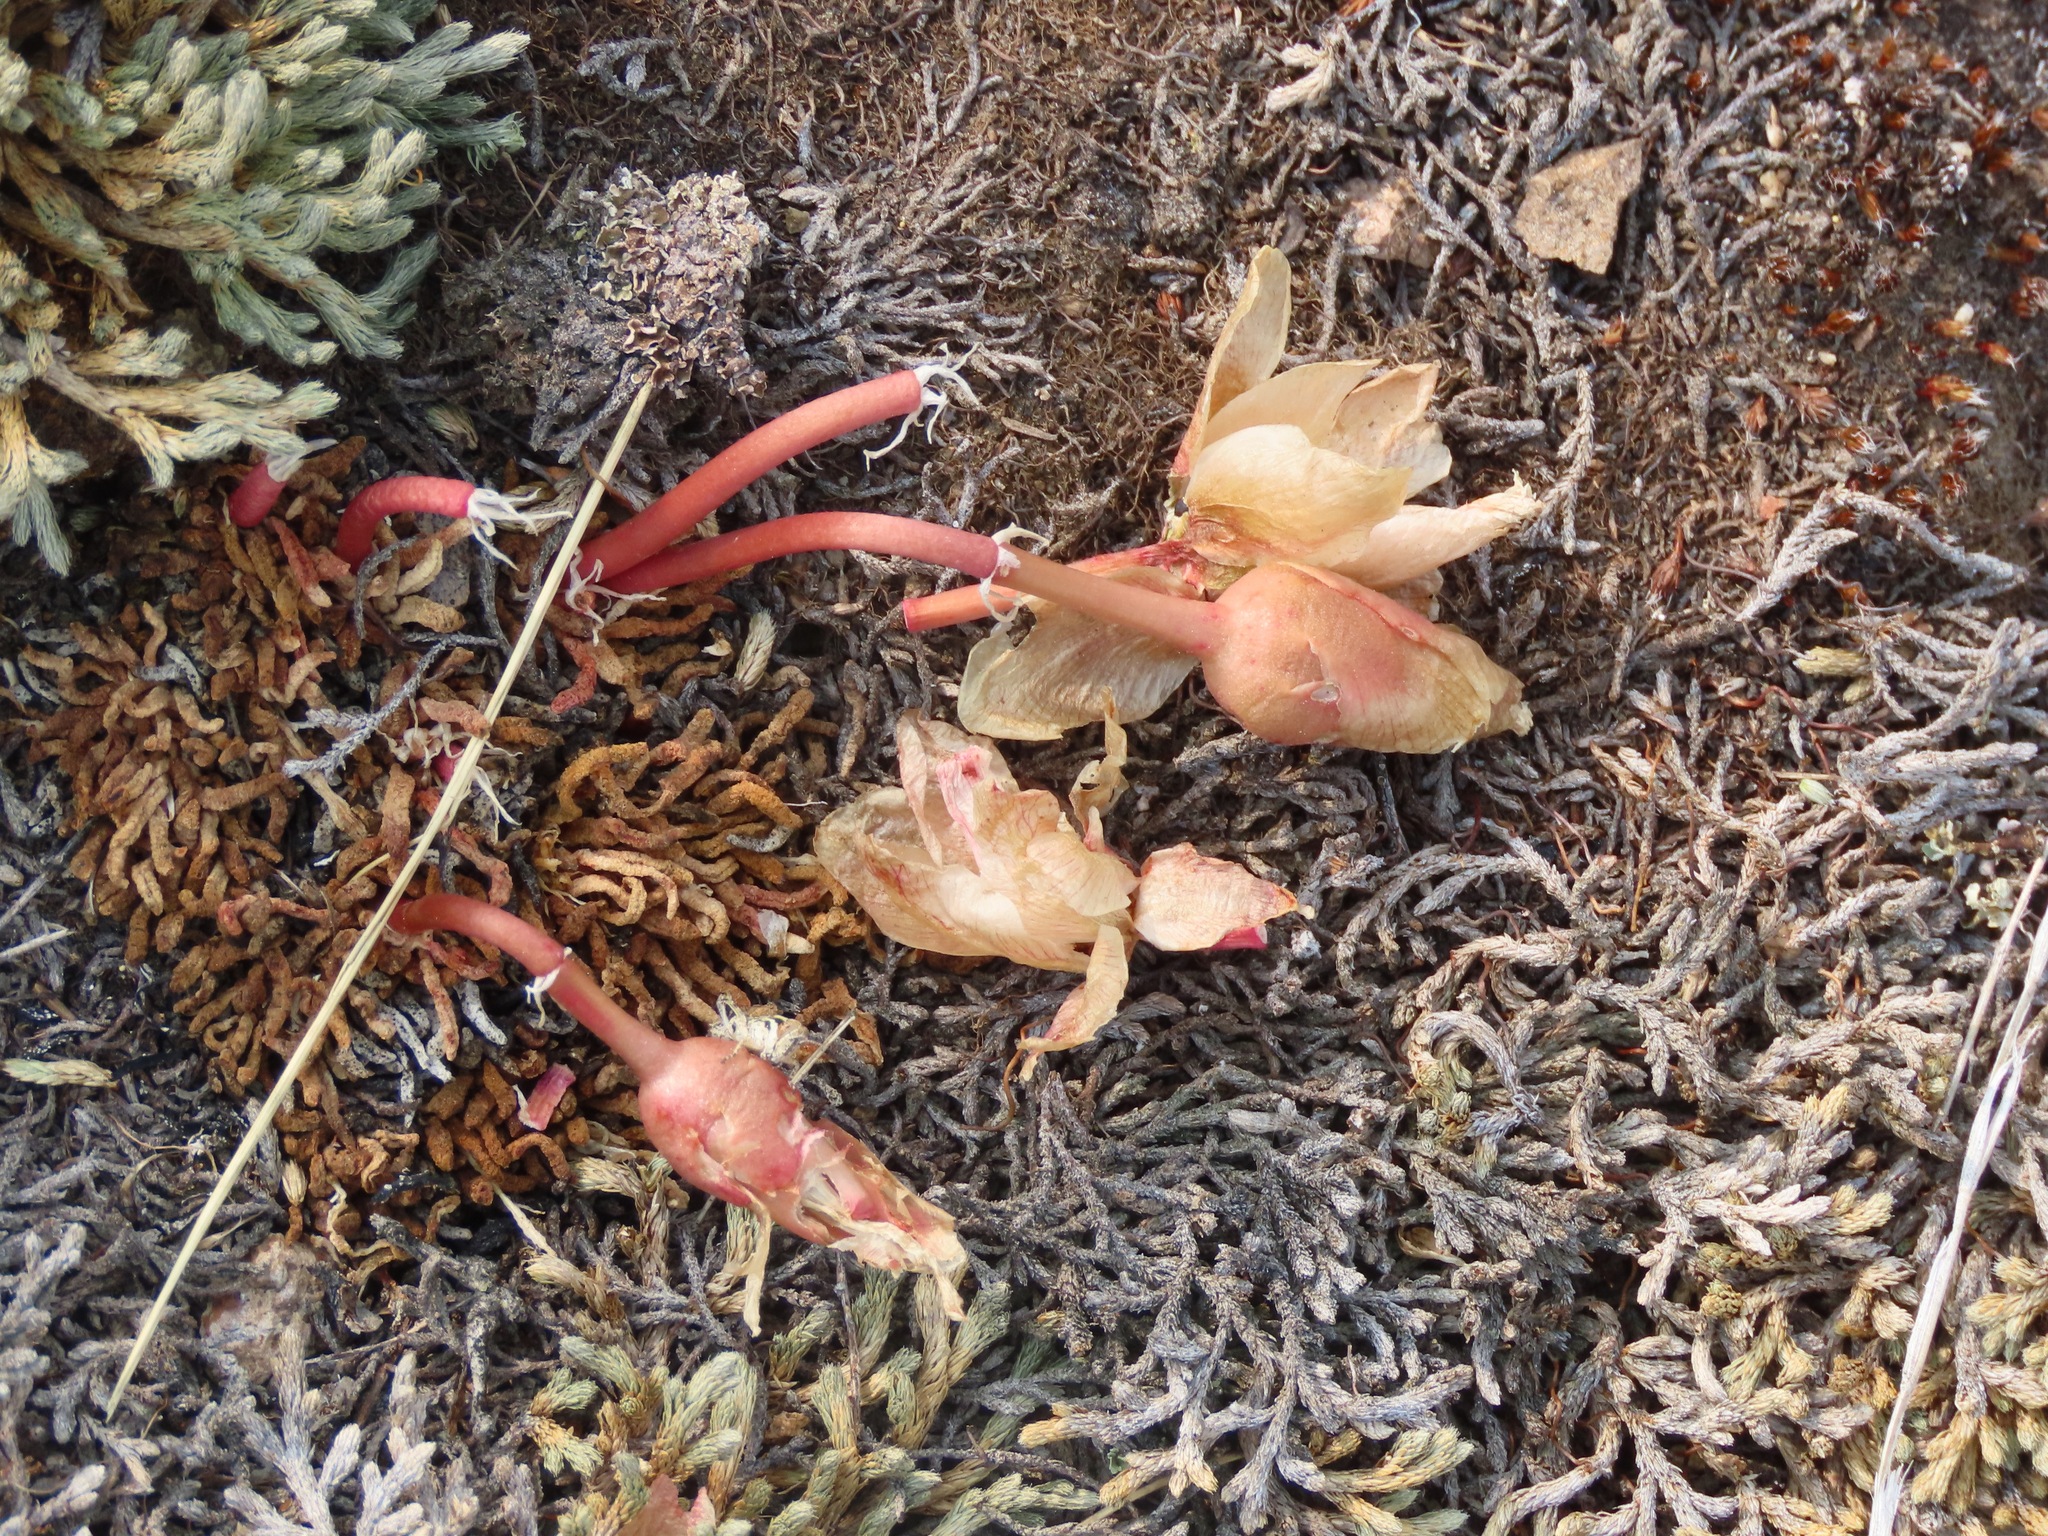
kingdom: Plantae
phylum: Tracheophyta
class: Magnoliopsida
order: Caryophyllales
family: Montiaceae
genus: Lewisia
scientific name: Lewisia rediviva
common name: Bitter-root
